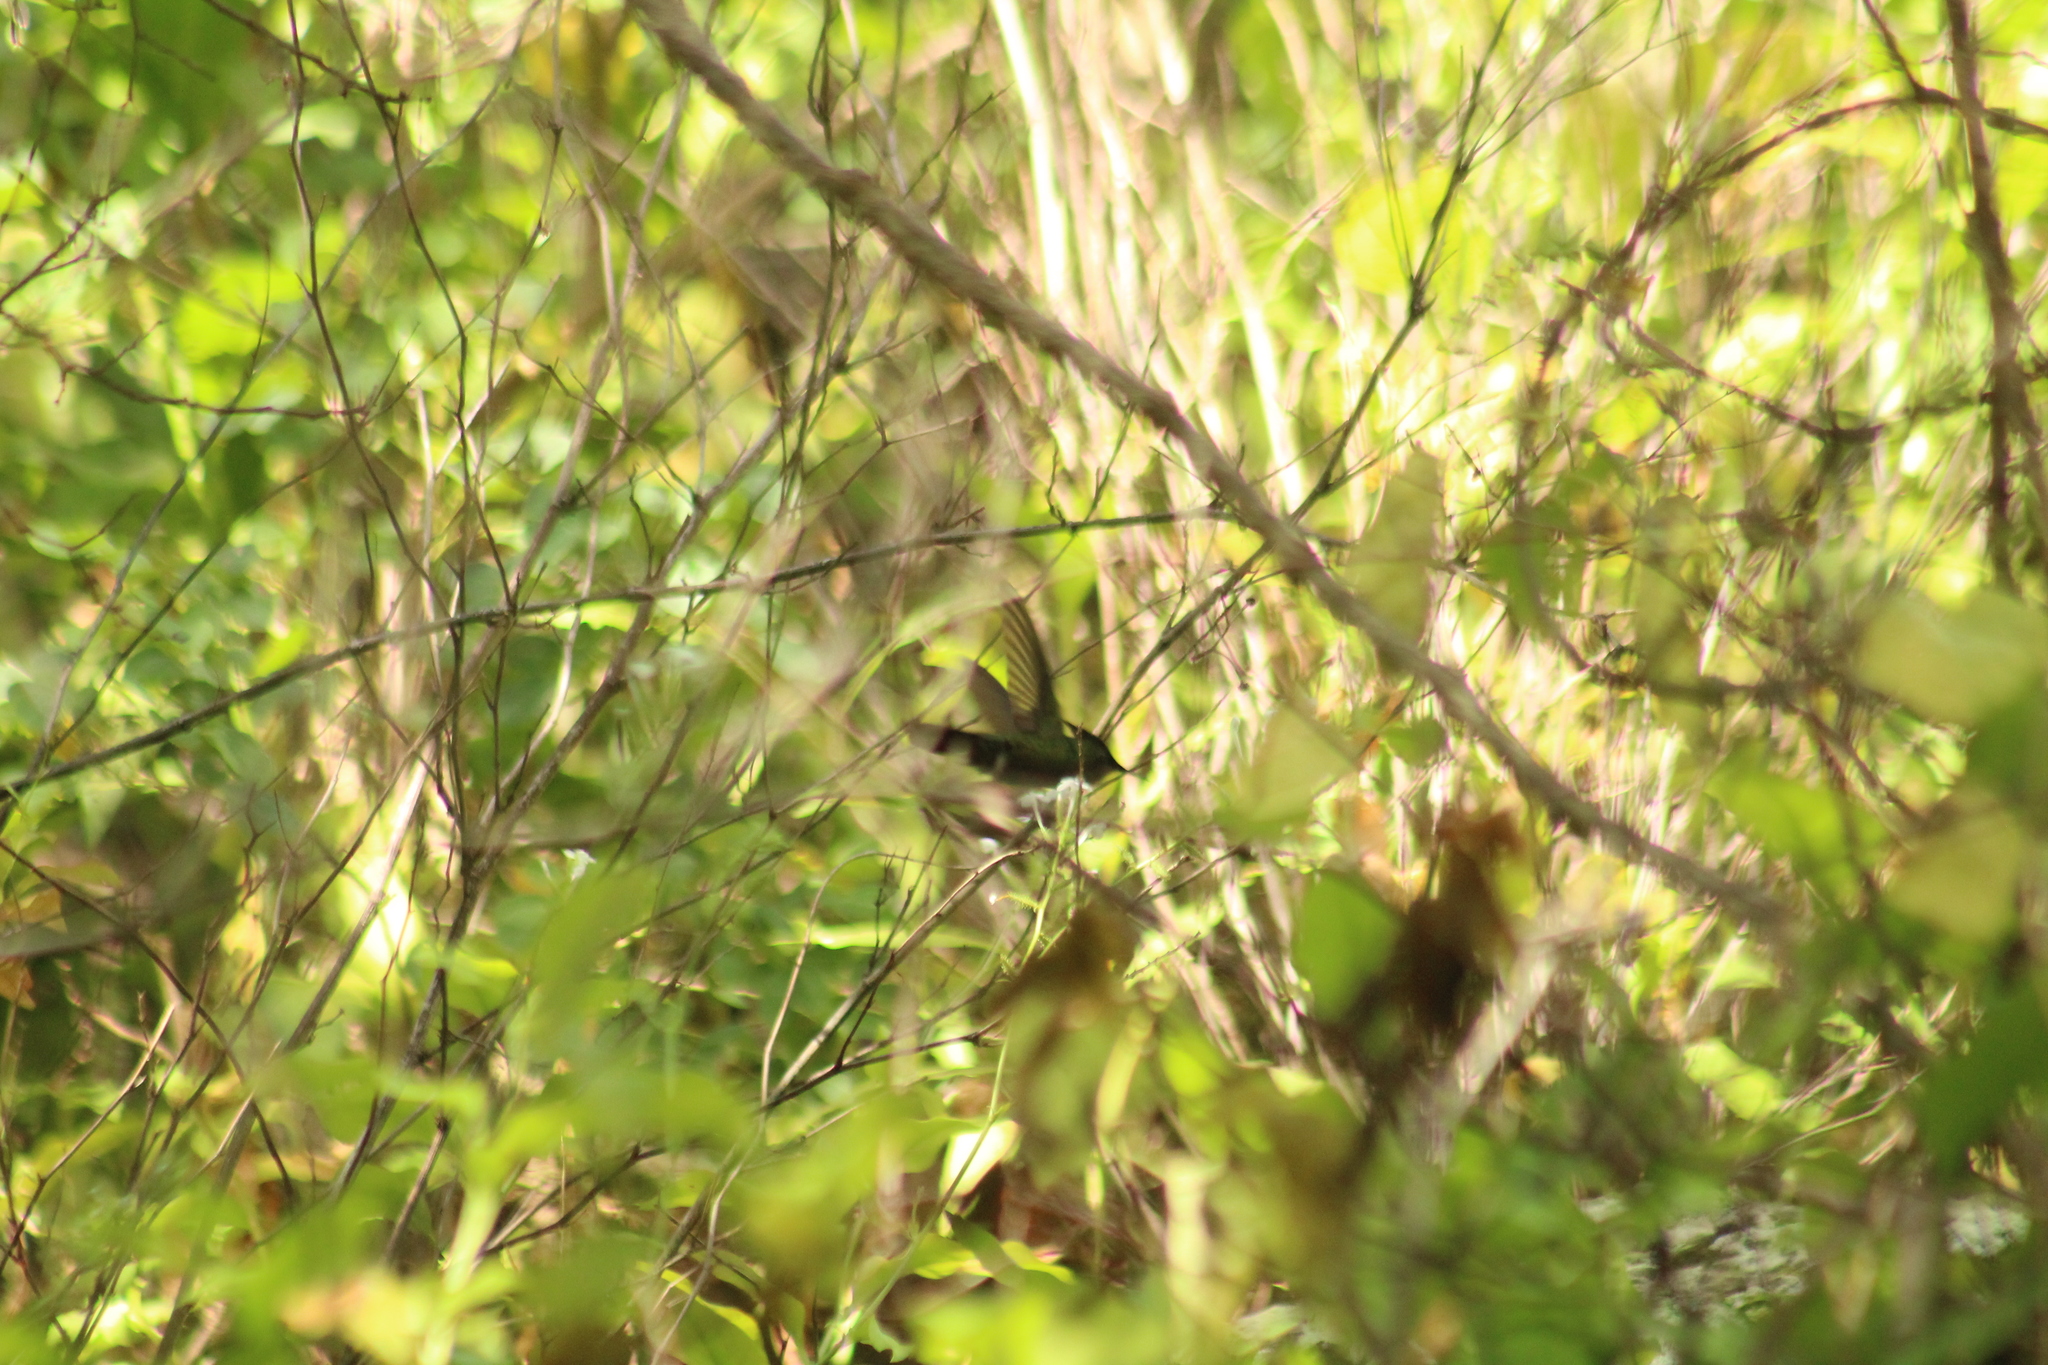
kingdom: Animalia
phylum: Chordata
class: Aves
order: Apodiformes
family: Trochilidae
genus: Orthorhyncus
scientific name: Orthorhyncus cristatus
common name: Antillean crested hummingbird
